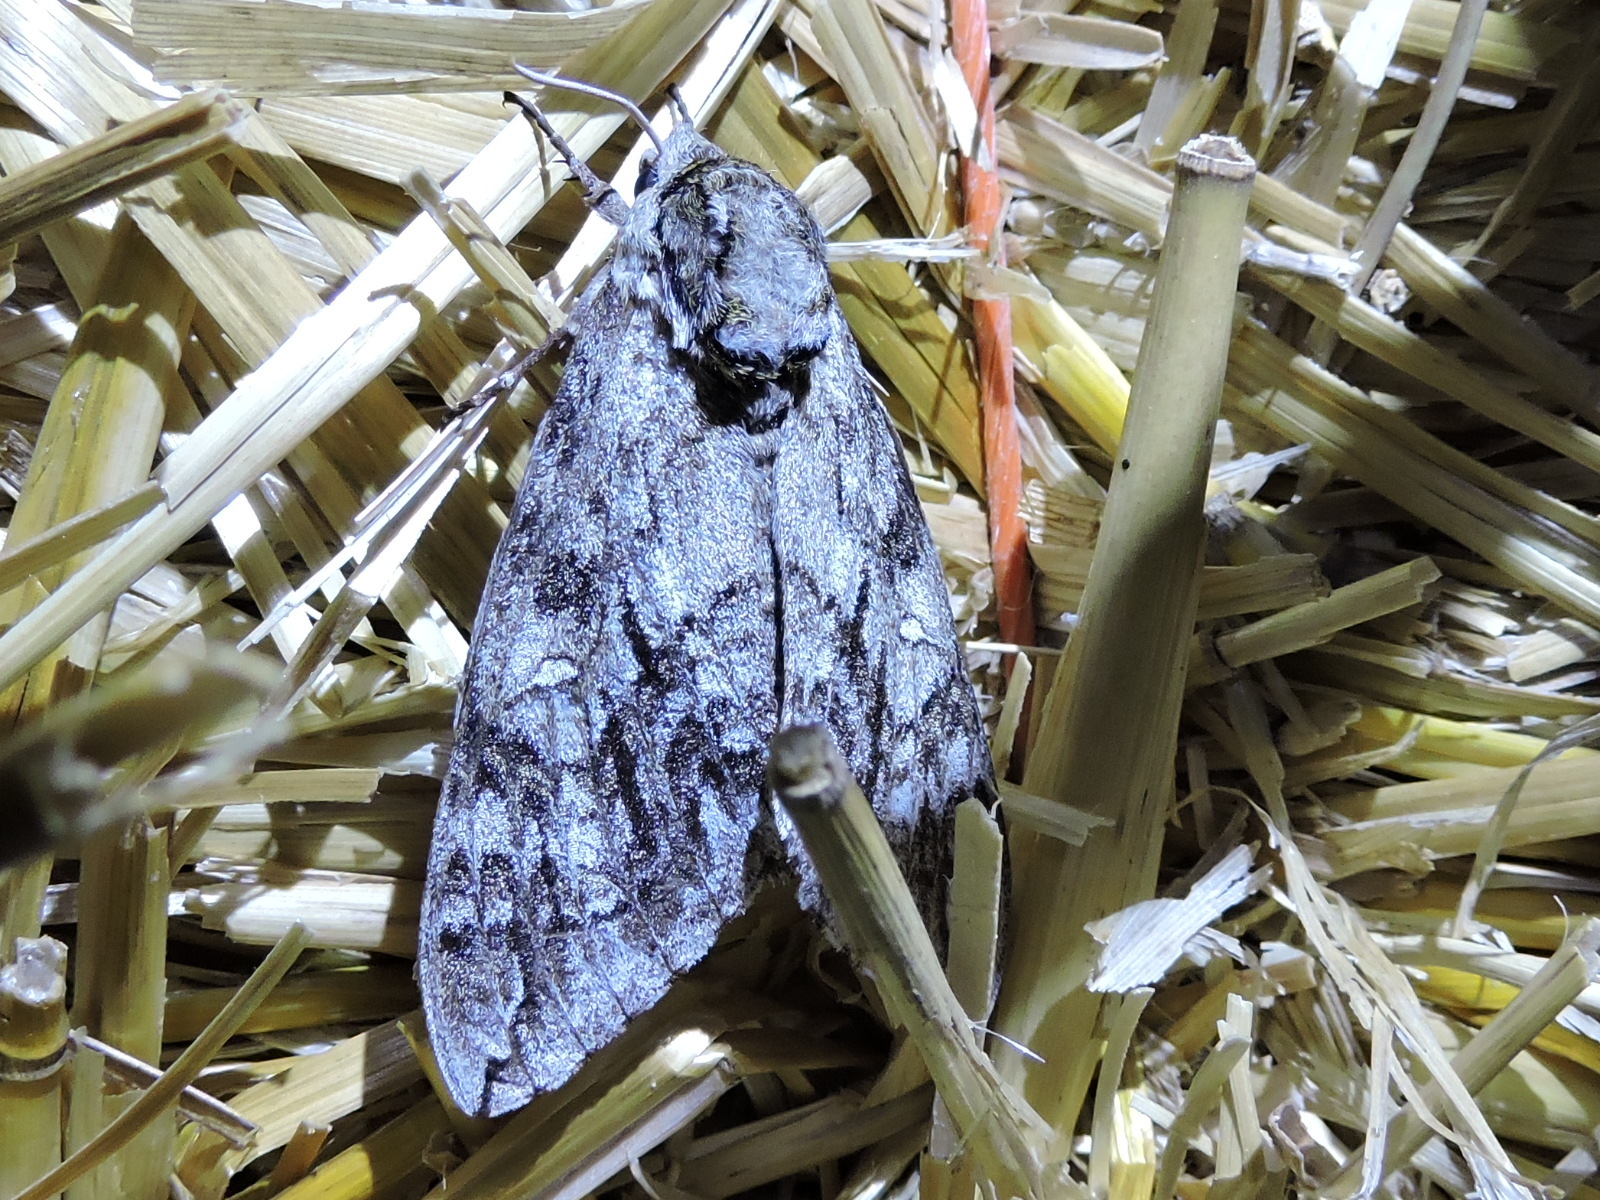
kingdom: Animalia
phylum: Arthropoda
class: Insecta
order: Lepidoptera
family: Sphingidae
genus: Ceratomia
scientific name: Ceratomia undulosa
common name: Waved sphinx
